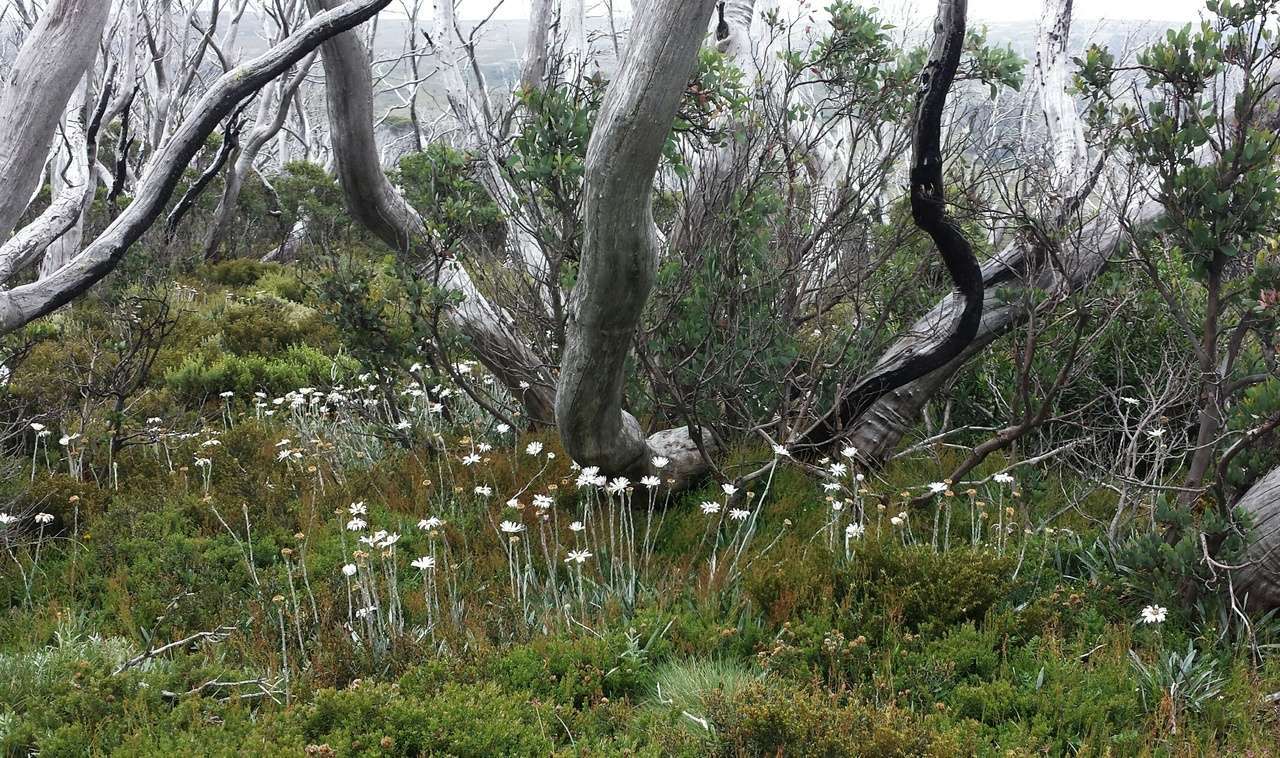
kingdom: Plantae
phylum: Tracheophyta
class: Magnoliopsida
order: Myrtales
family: Myrtaceae
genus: Eucalyptus
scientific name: Eucalyptus pauciflora
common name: Snow gum
